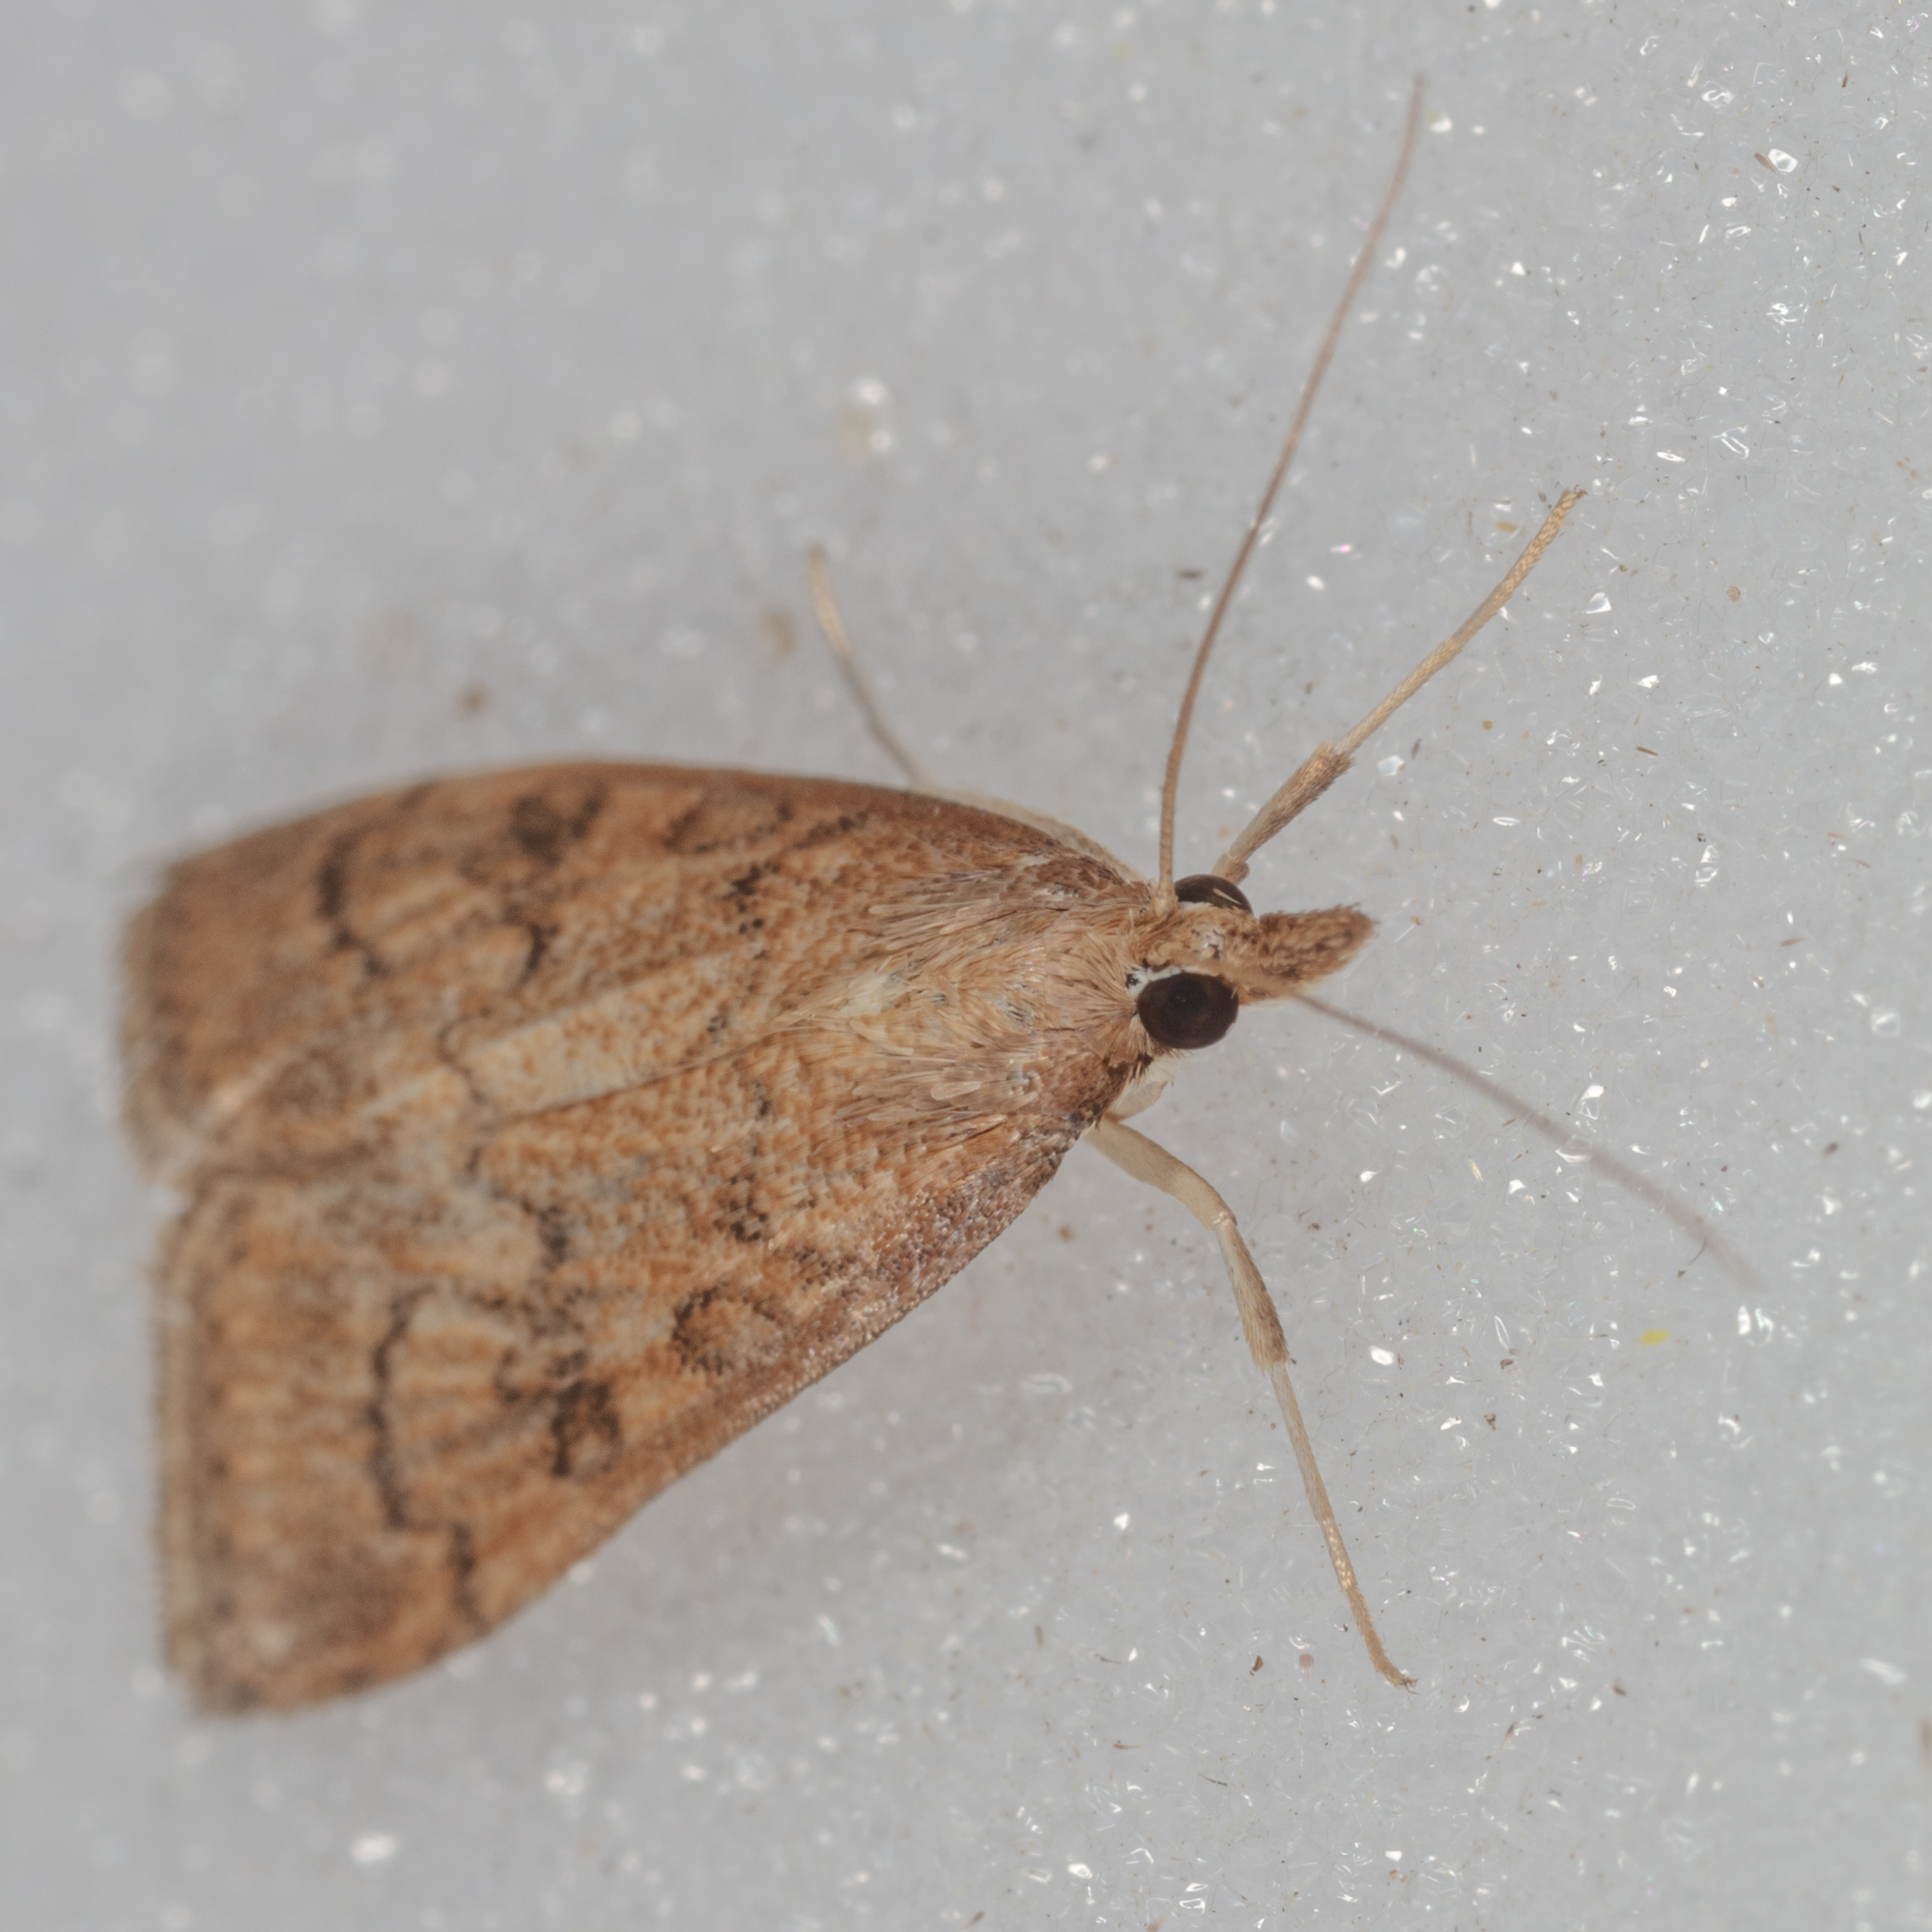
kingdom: Animalia
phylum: Arthropoda
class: Insecta
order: Lepidoptera
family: Crambidae
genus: Udea
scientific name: Udea rubigalis
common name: Celery leaftier moth
